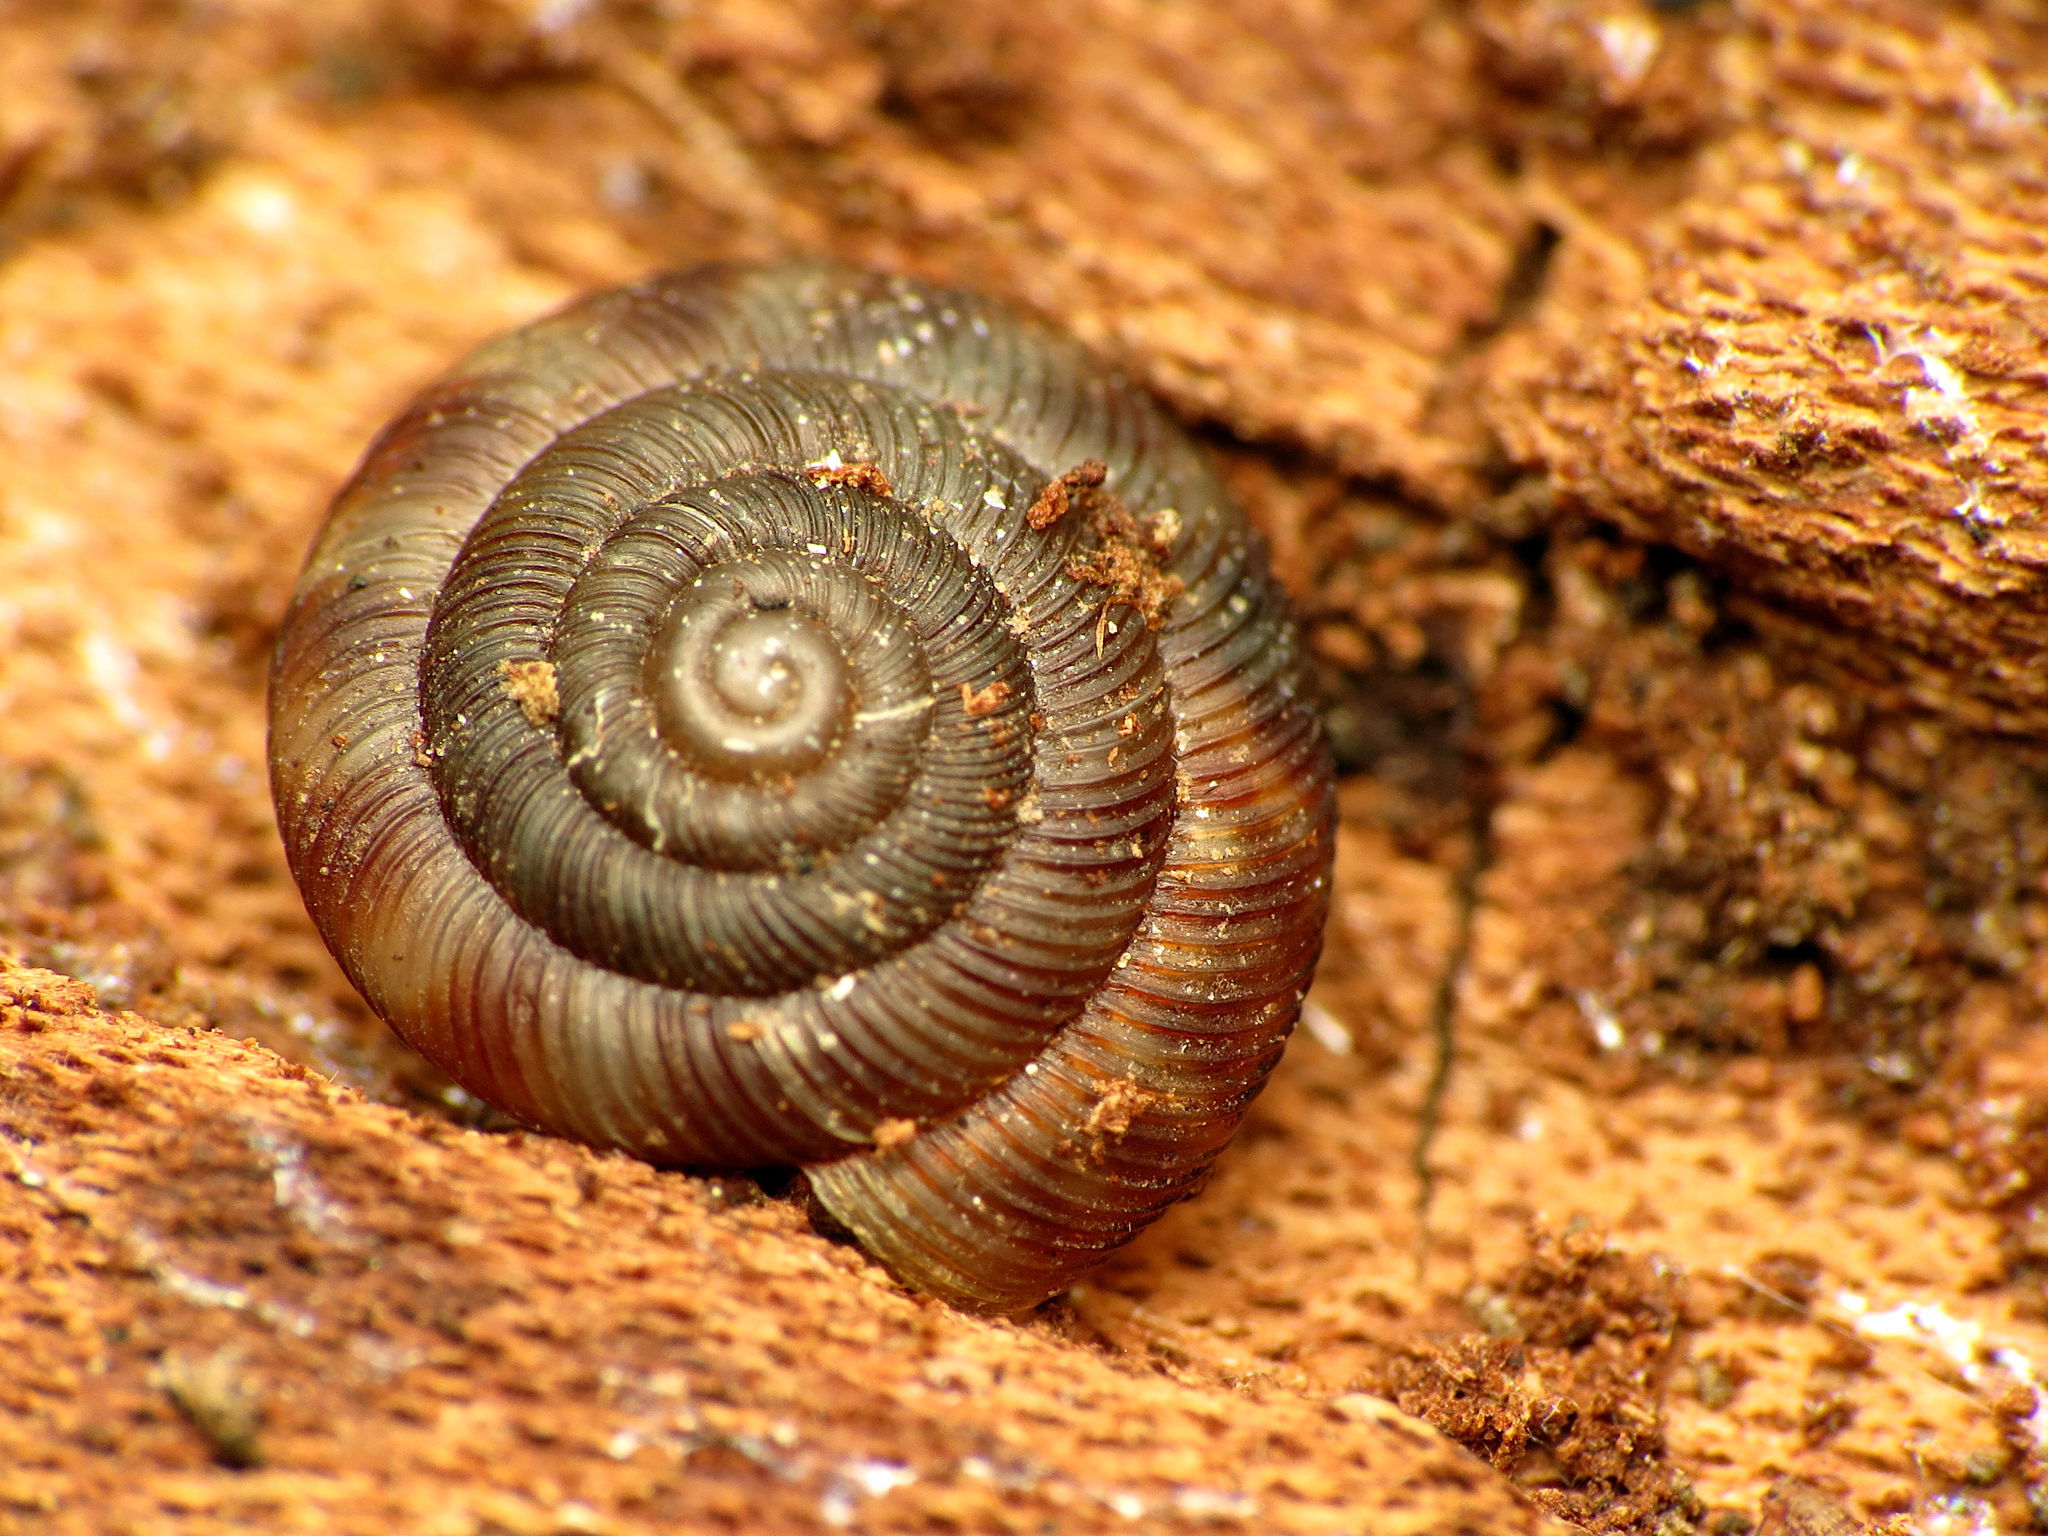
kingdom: Animalia
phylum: Mollusca
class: Gastropoda
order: Stylommatophora
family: Discidae
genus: Discus
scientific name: Discus rotundatus
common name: Rounded snail
